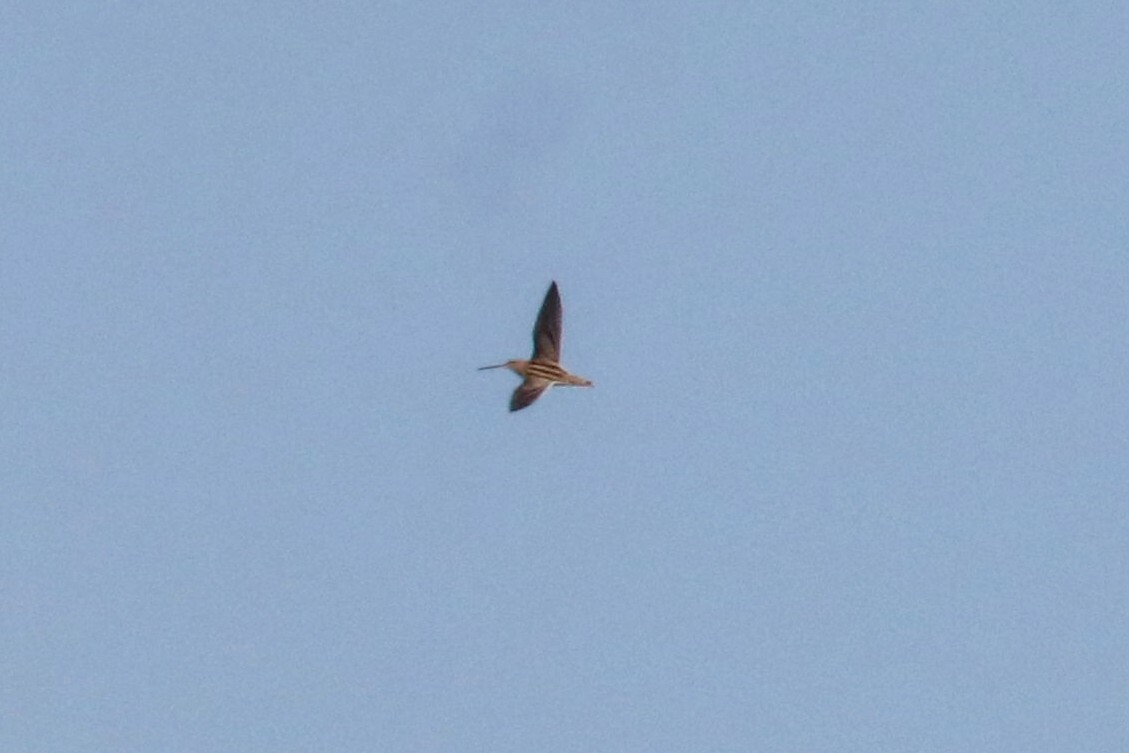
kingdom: Animalia
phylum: Chordata
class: Aves
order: Charadriiformes
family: Scolopacidae
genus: Gallinago
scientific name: Gallinago gallinago
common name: Common snipe
